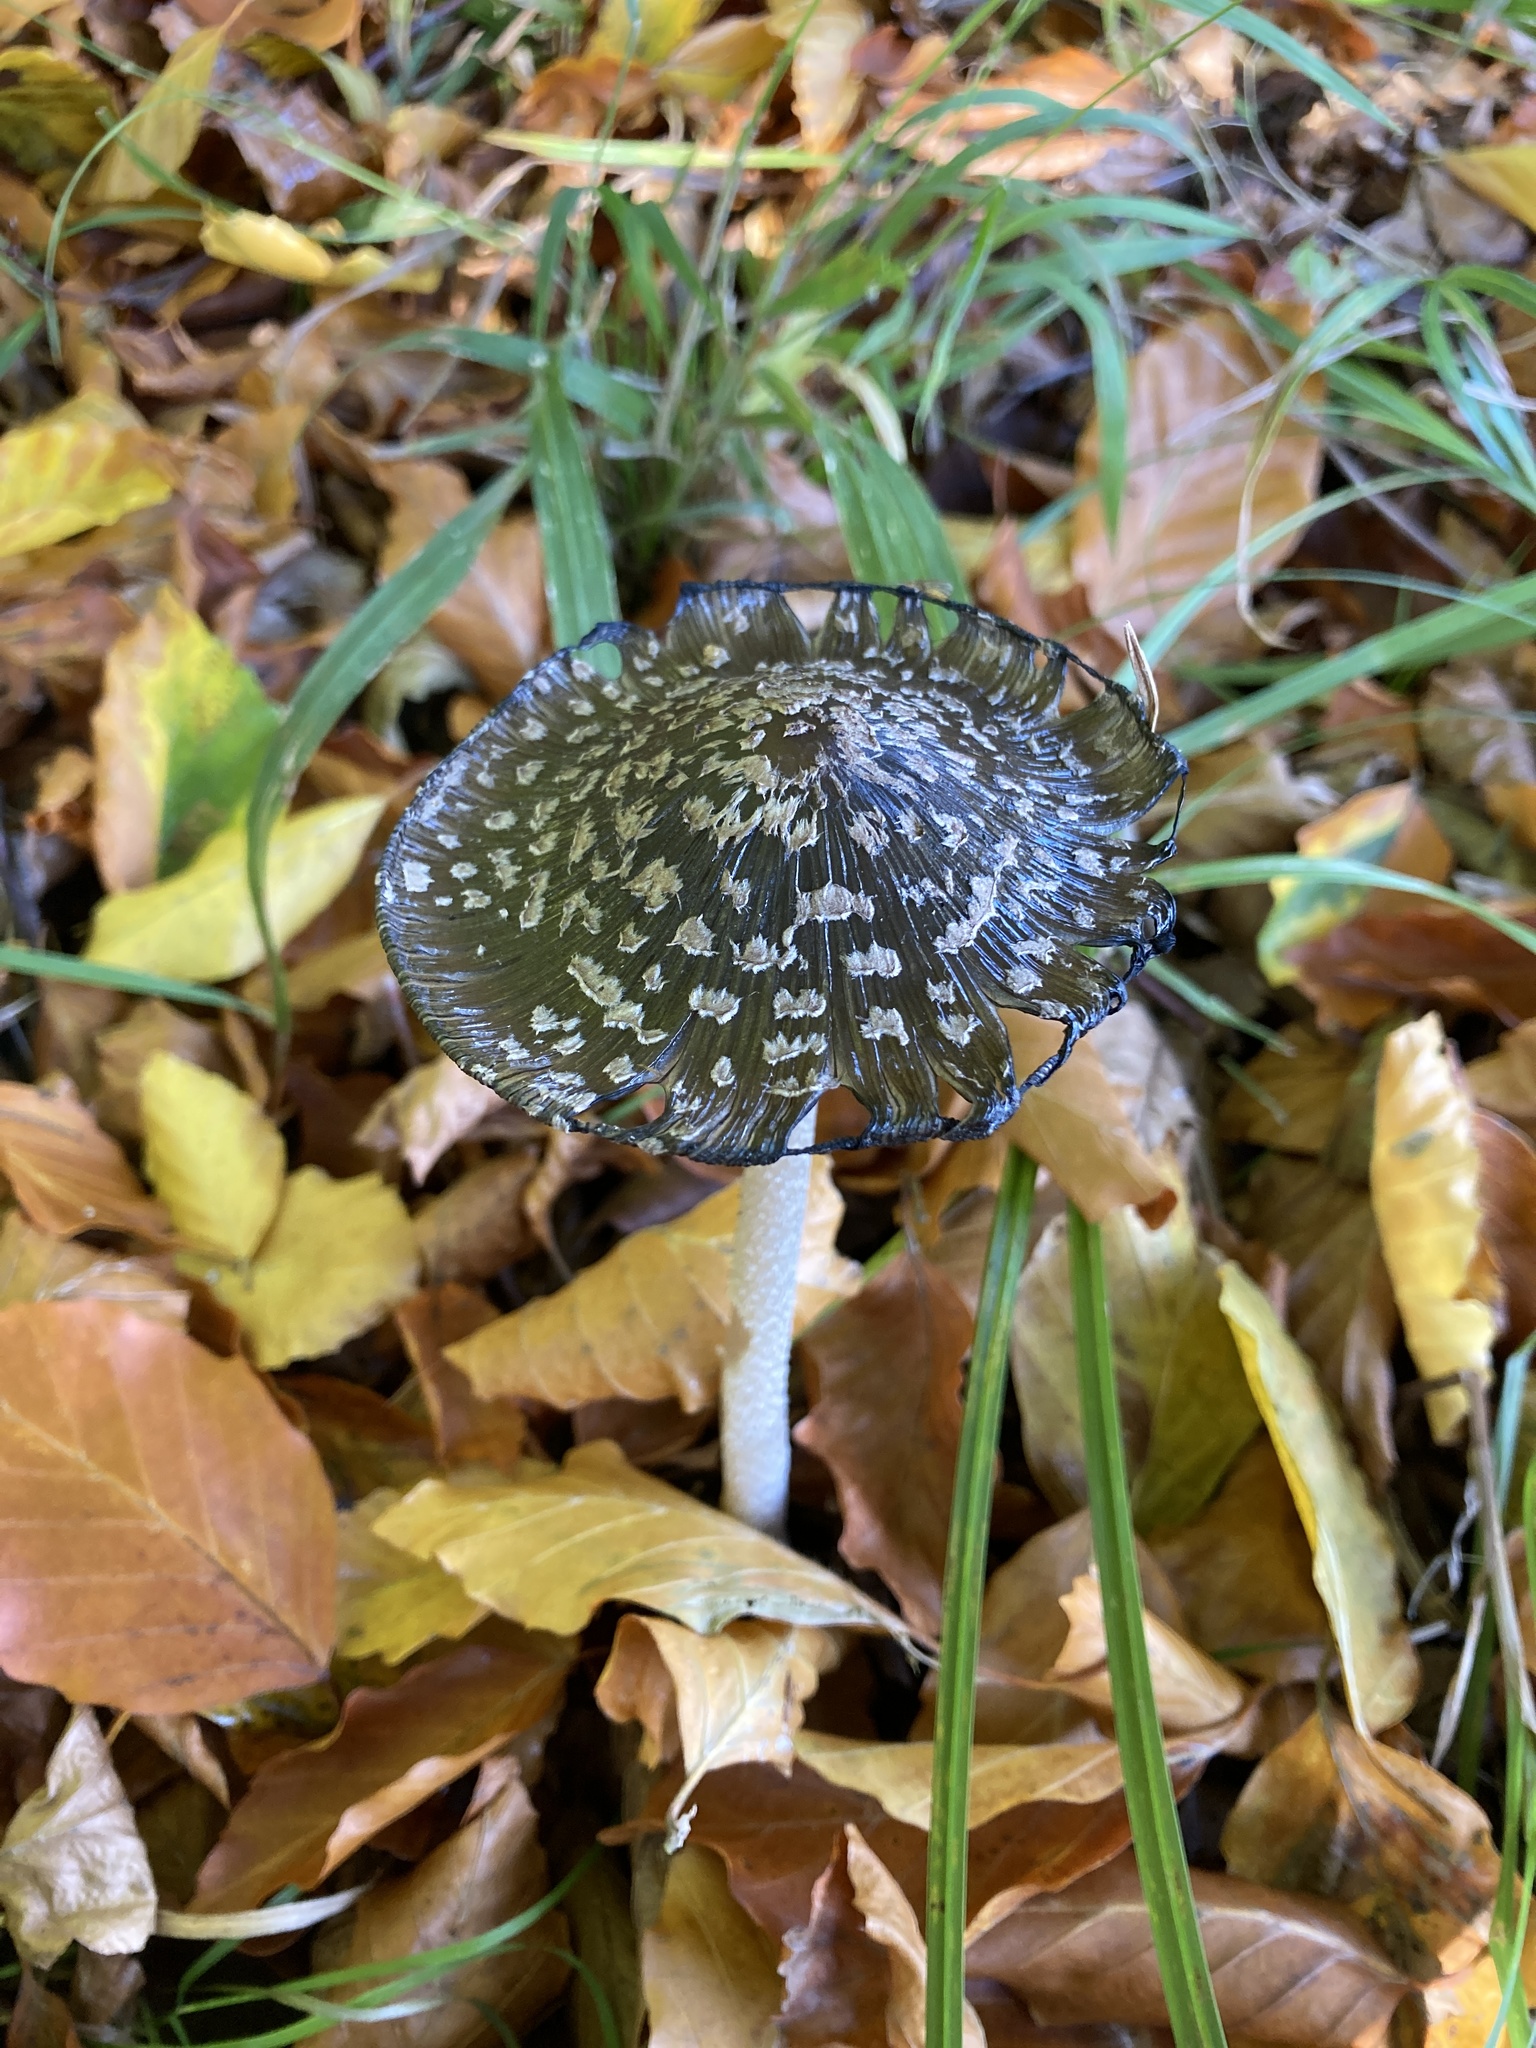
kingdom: Fungi
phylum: Basidiomycota
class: Agaricomycetes
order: Agaricales
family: Psathyrellaceae
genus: Coprinopsis
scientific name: Coprinopsis picacea
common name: Magpie inkcap
